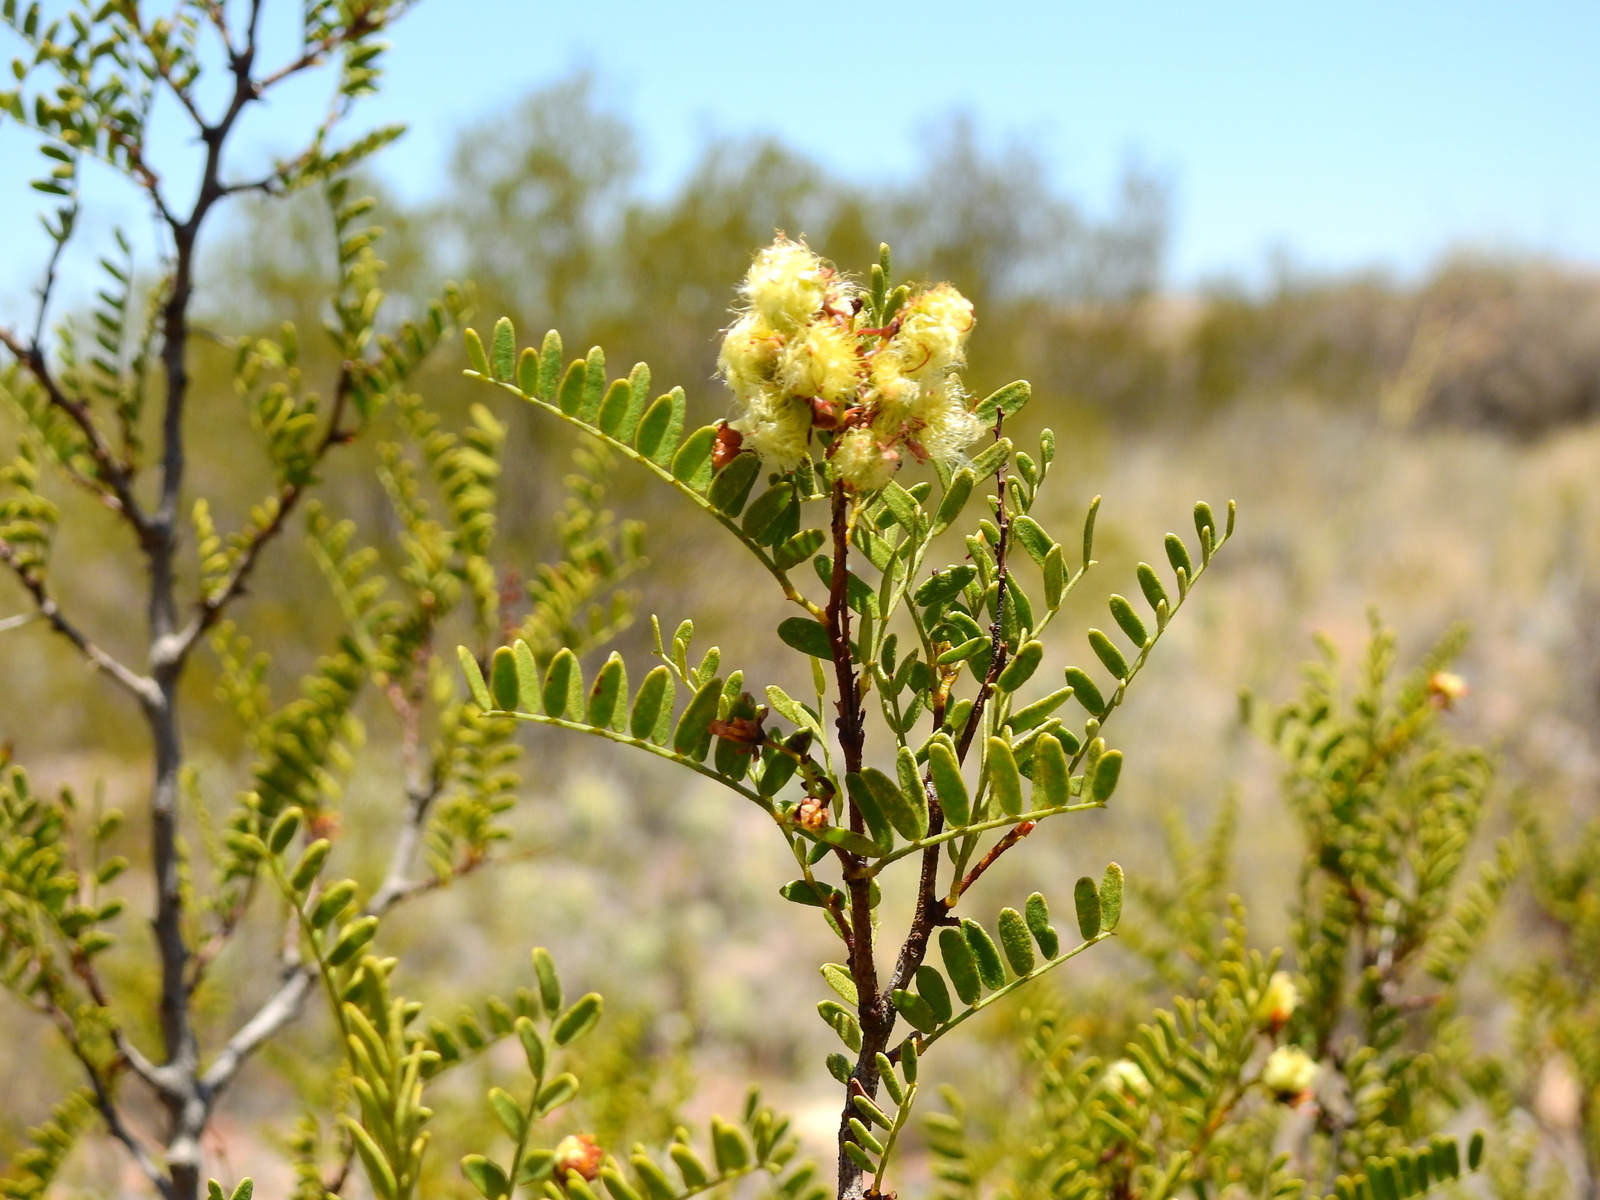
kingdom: Plantae
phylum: Tracheophyta
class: Magnoliopsida
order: Fabales
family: Fabaceae
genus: Zuccagnia
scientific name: Zuccagnia punctata
